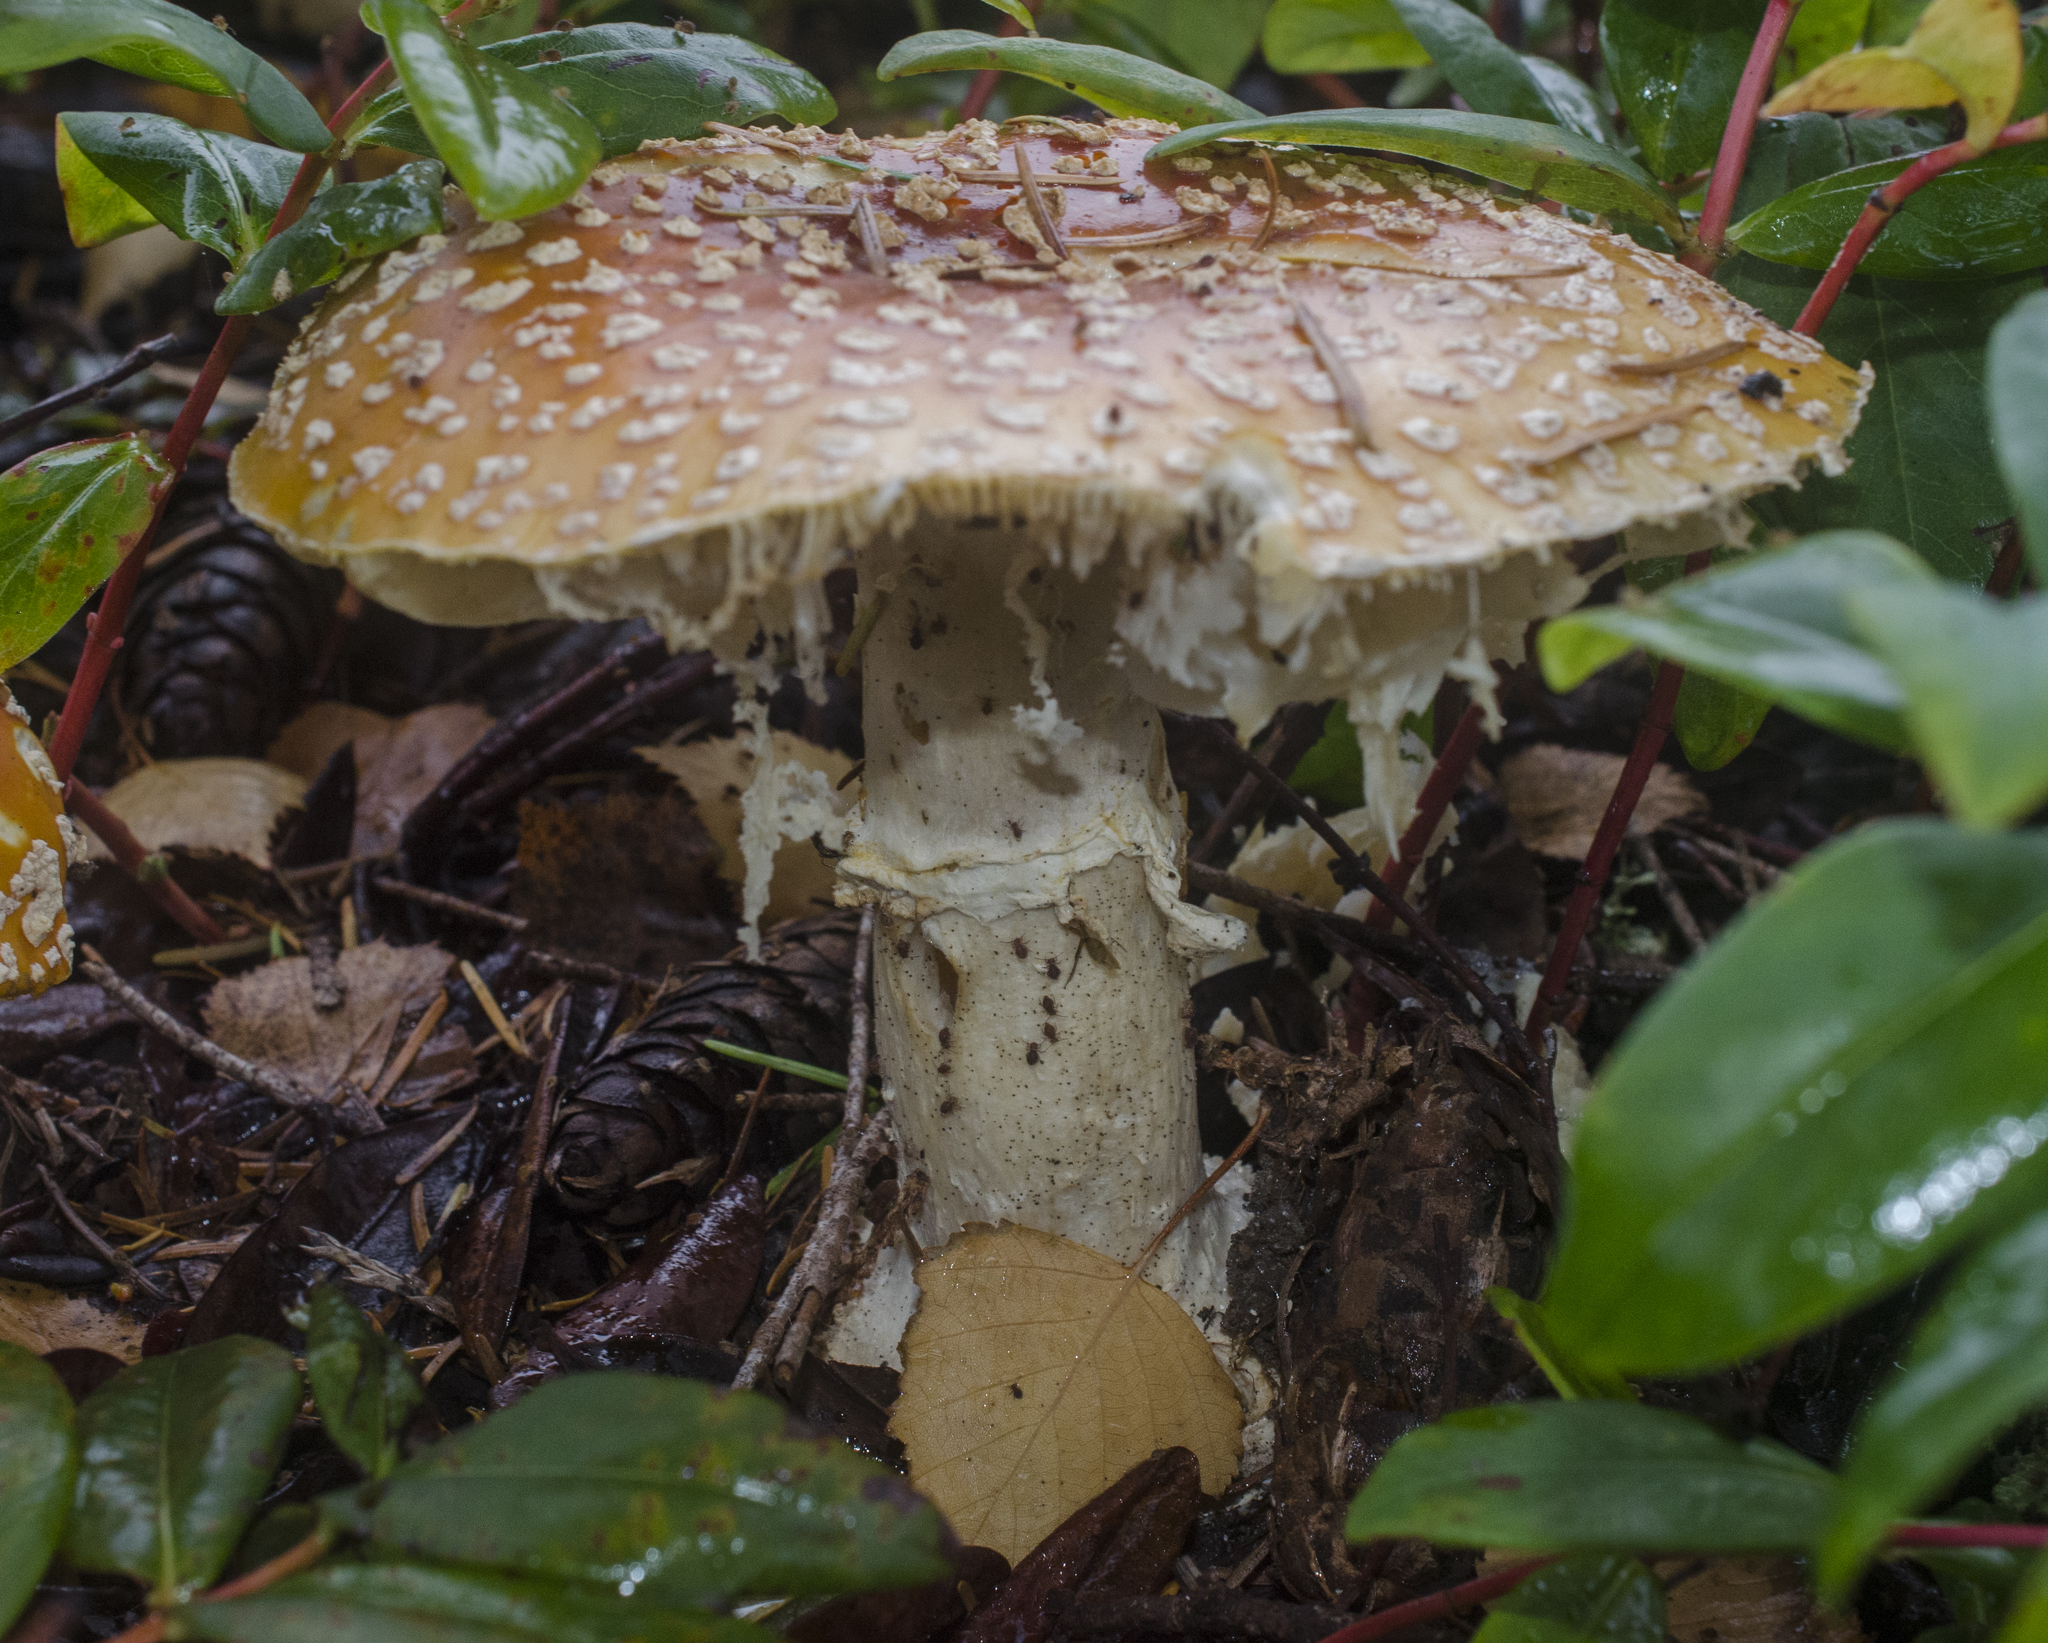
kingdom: Fungi
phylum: Basidiomycota
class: Agaricomycetes
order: Agaricales
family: Amanitaceae
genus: Amanita
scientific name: Amanita muscaria
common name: Fly agaric
